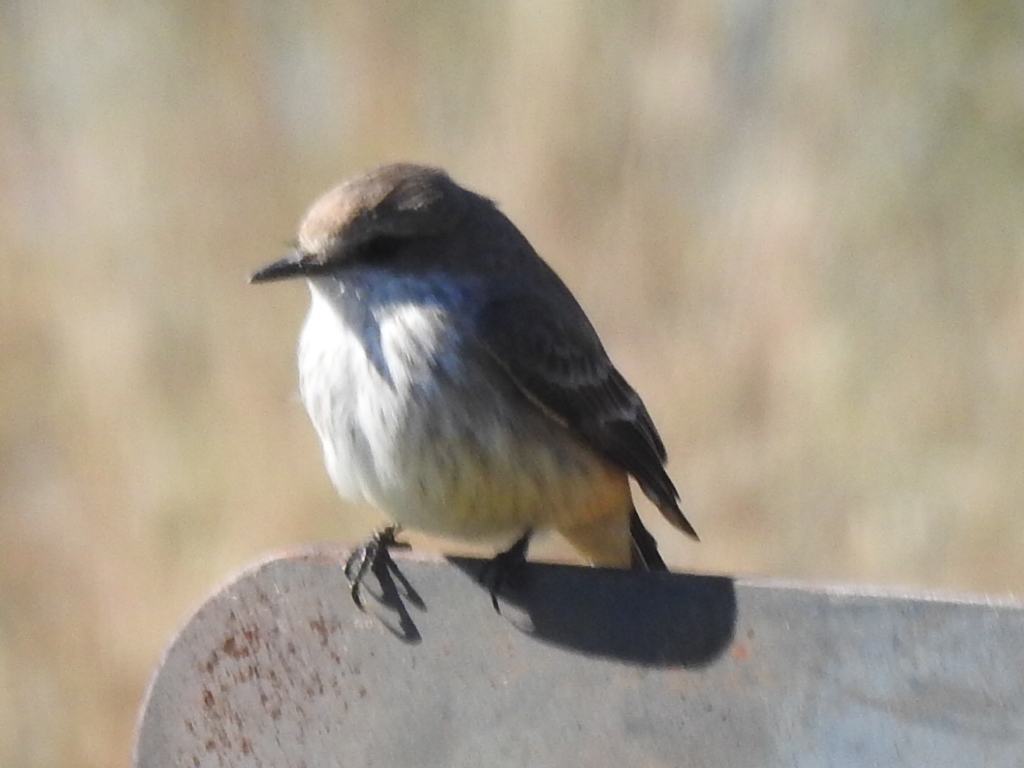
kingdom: Animalia
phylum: Chordata
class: Aves
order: Passeriformes
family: Tyrannidae
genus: Pyrocephalus
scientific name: Pyrocephalus rubinus
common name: Vermilion flycatcher
